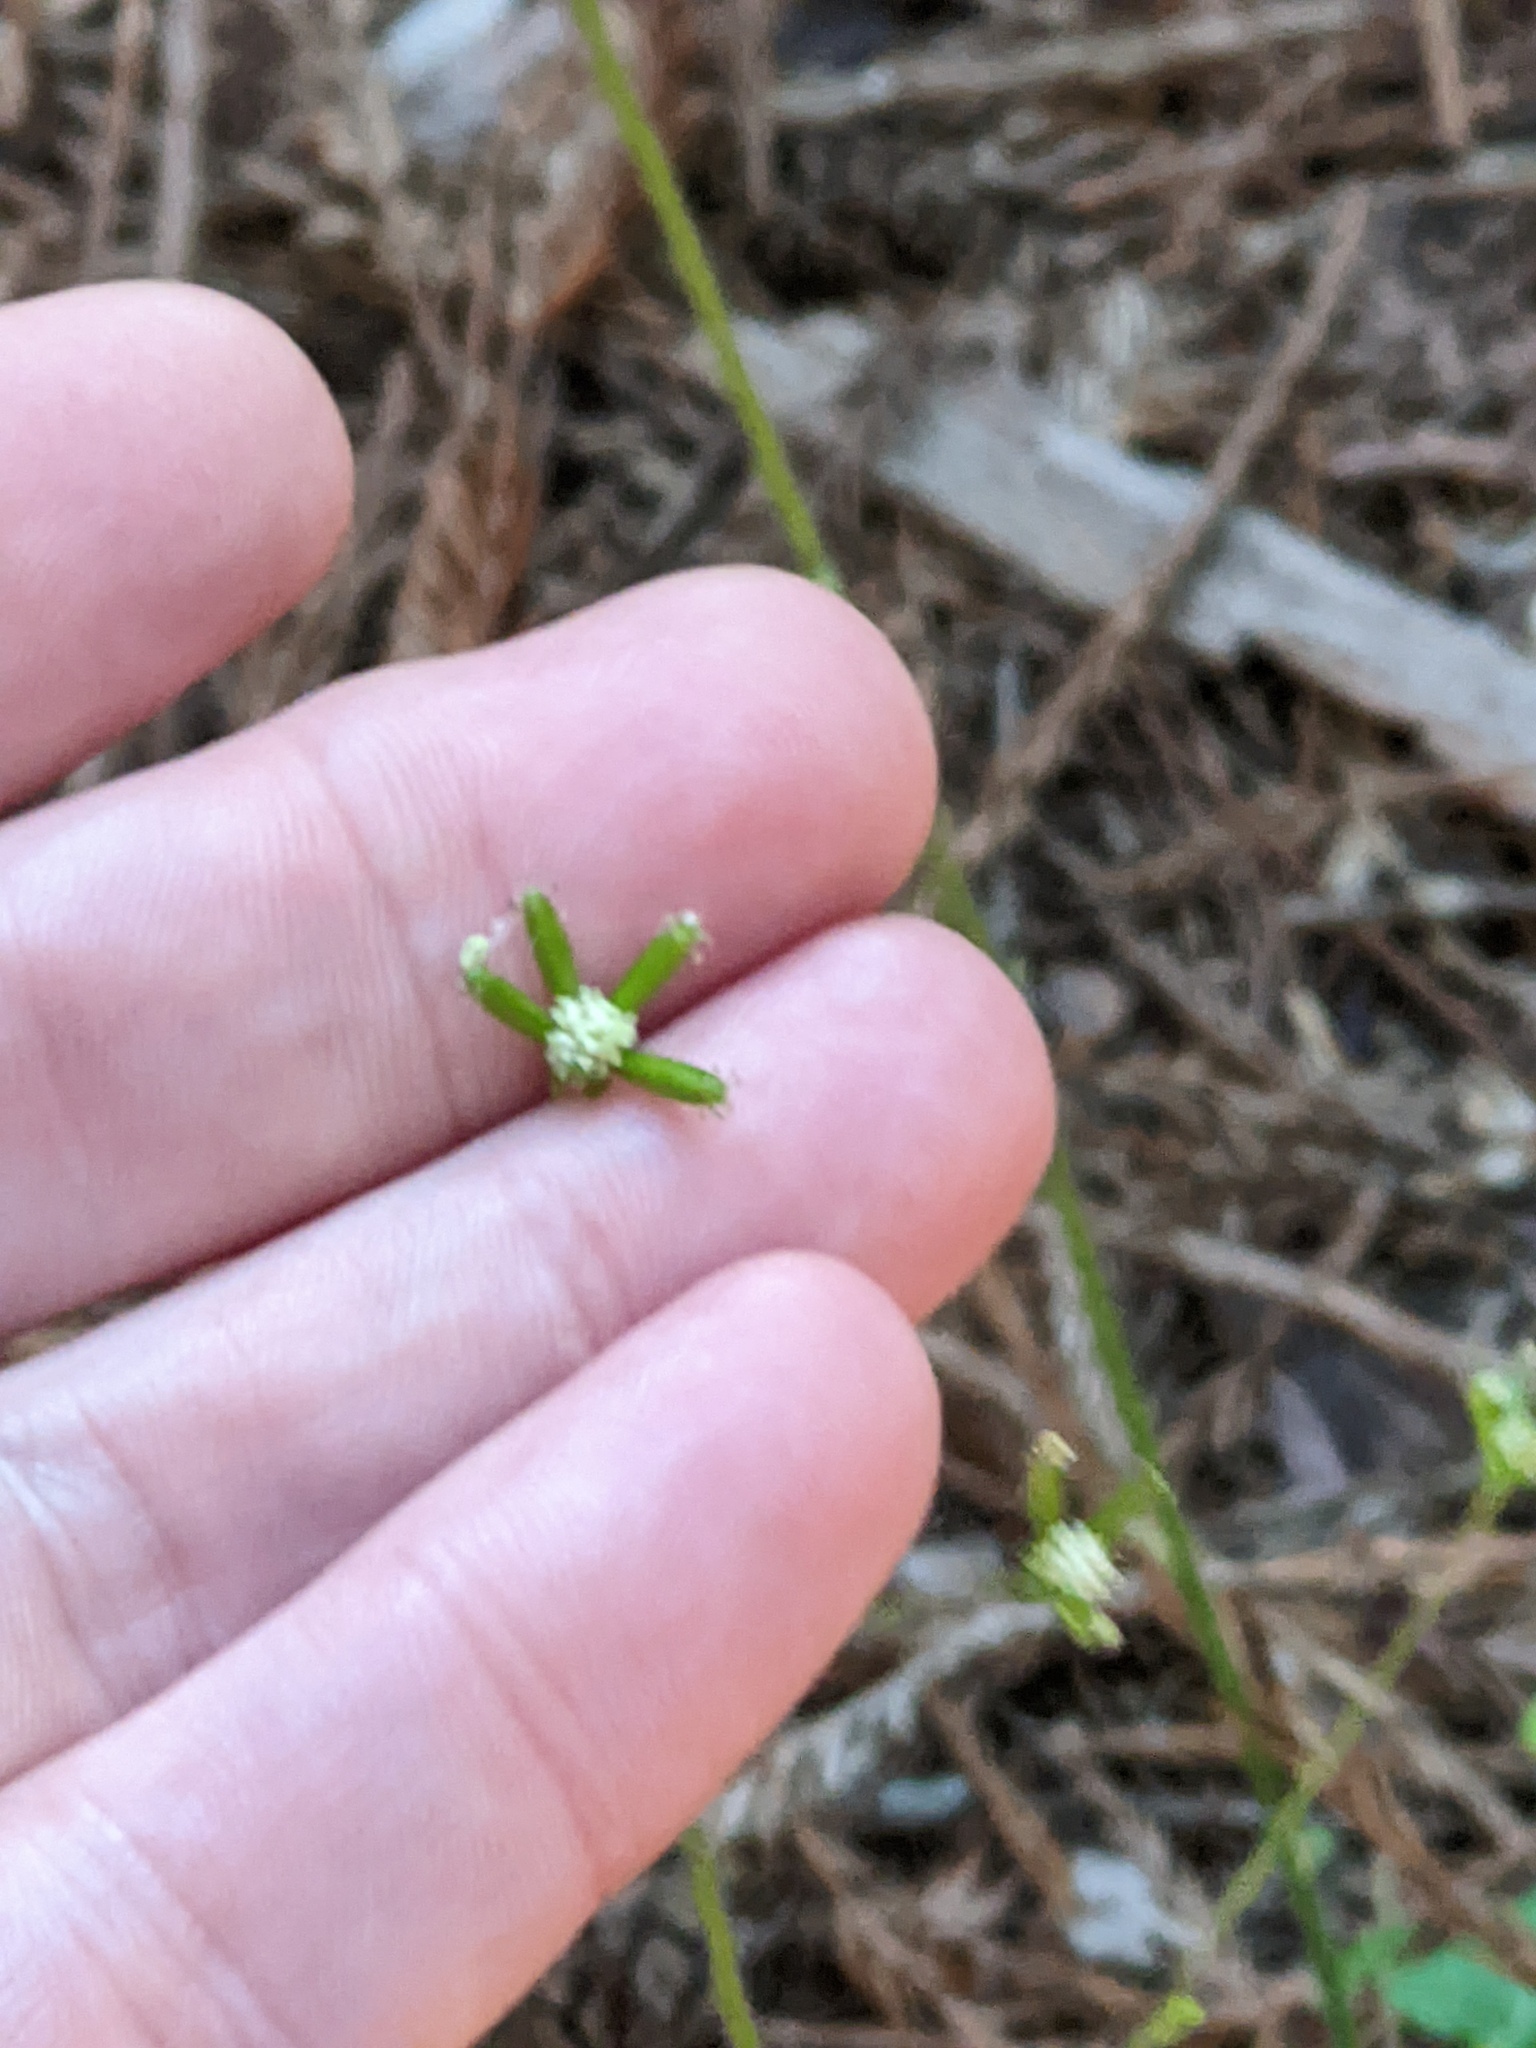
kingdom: Plantae
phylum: Tracheophyta
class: Magnoliopsida
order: Asterales
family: Asteraceae
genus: Adenocaulon
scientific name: Adenocaulon bicolor
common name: Trailplant
